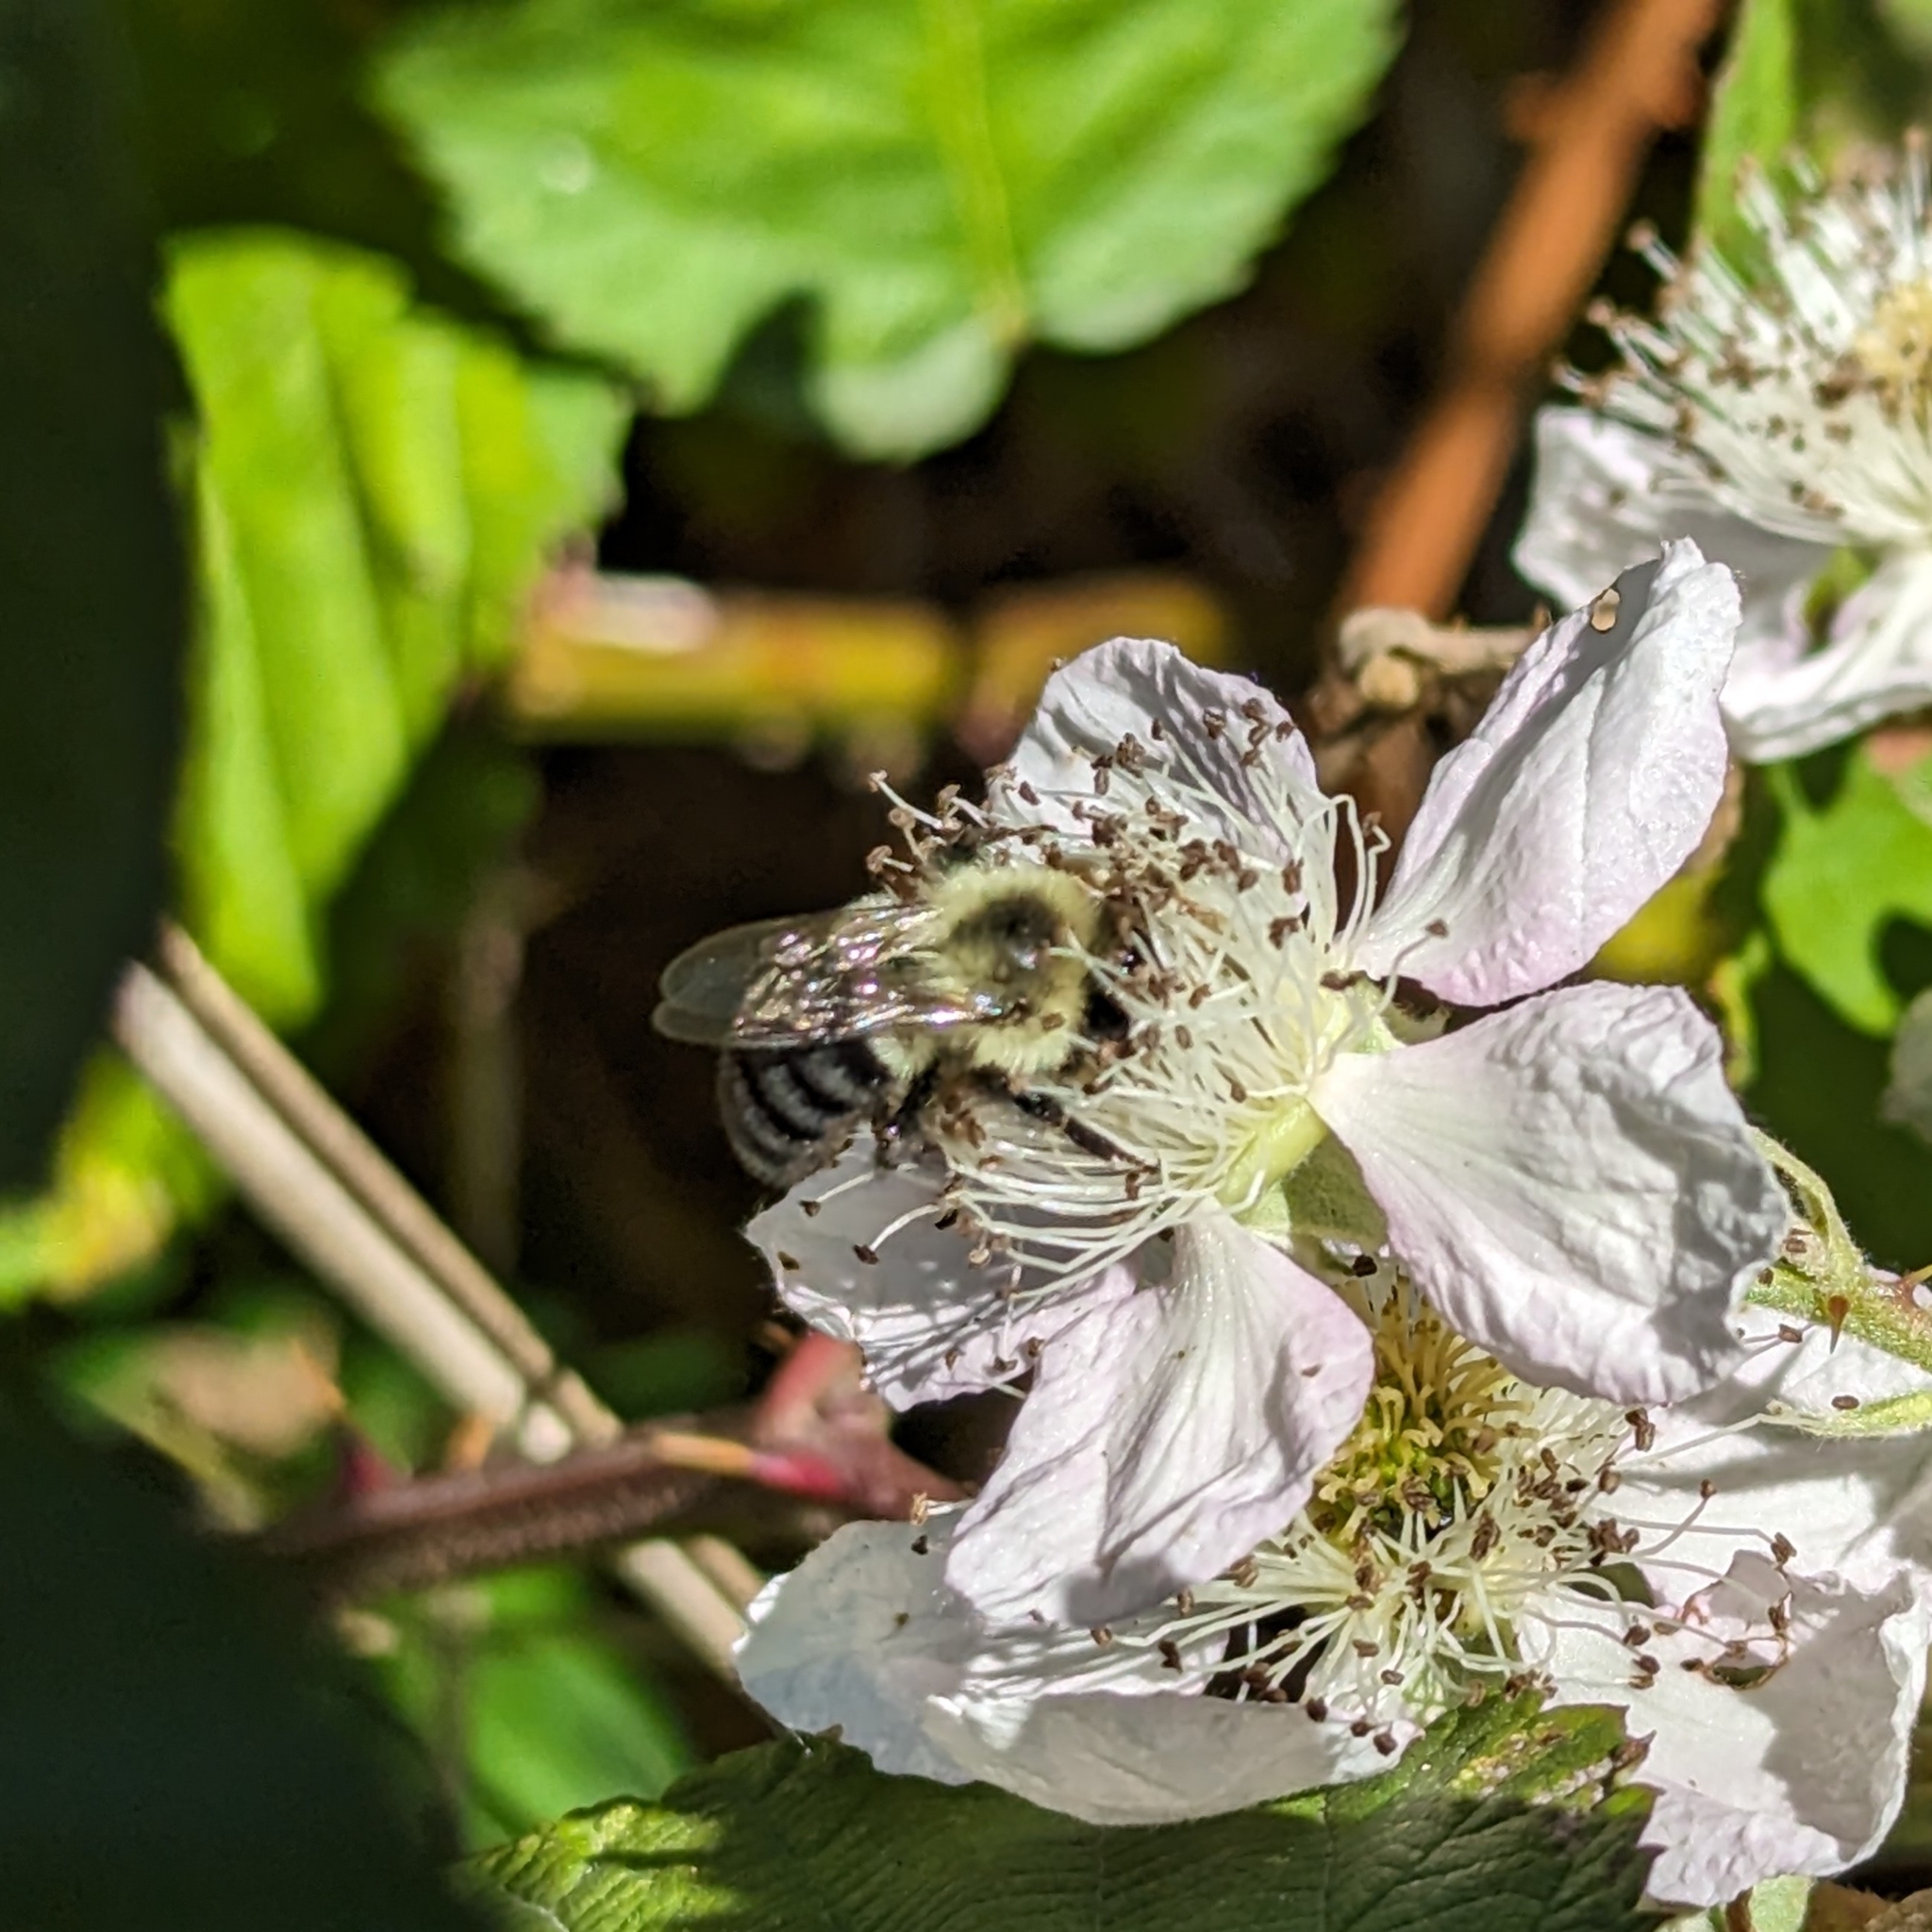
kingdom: Animalia
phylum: Arthropoda
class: Insecta
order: Hymenoptera
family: Apidae
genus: Bombus
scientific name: Bombus impatiens
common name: Common eastern bumble bee
